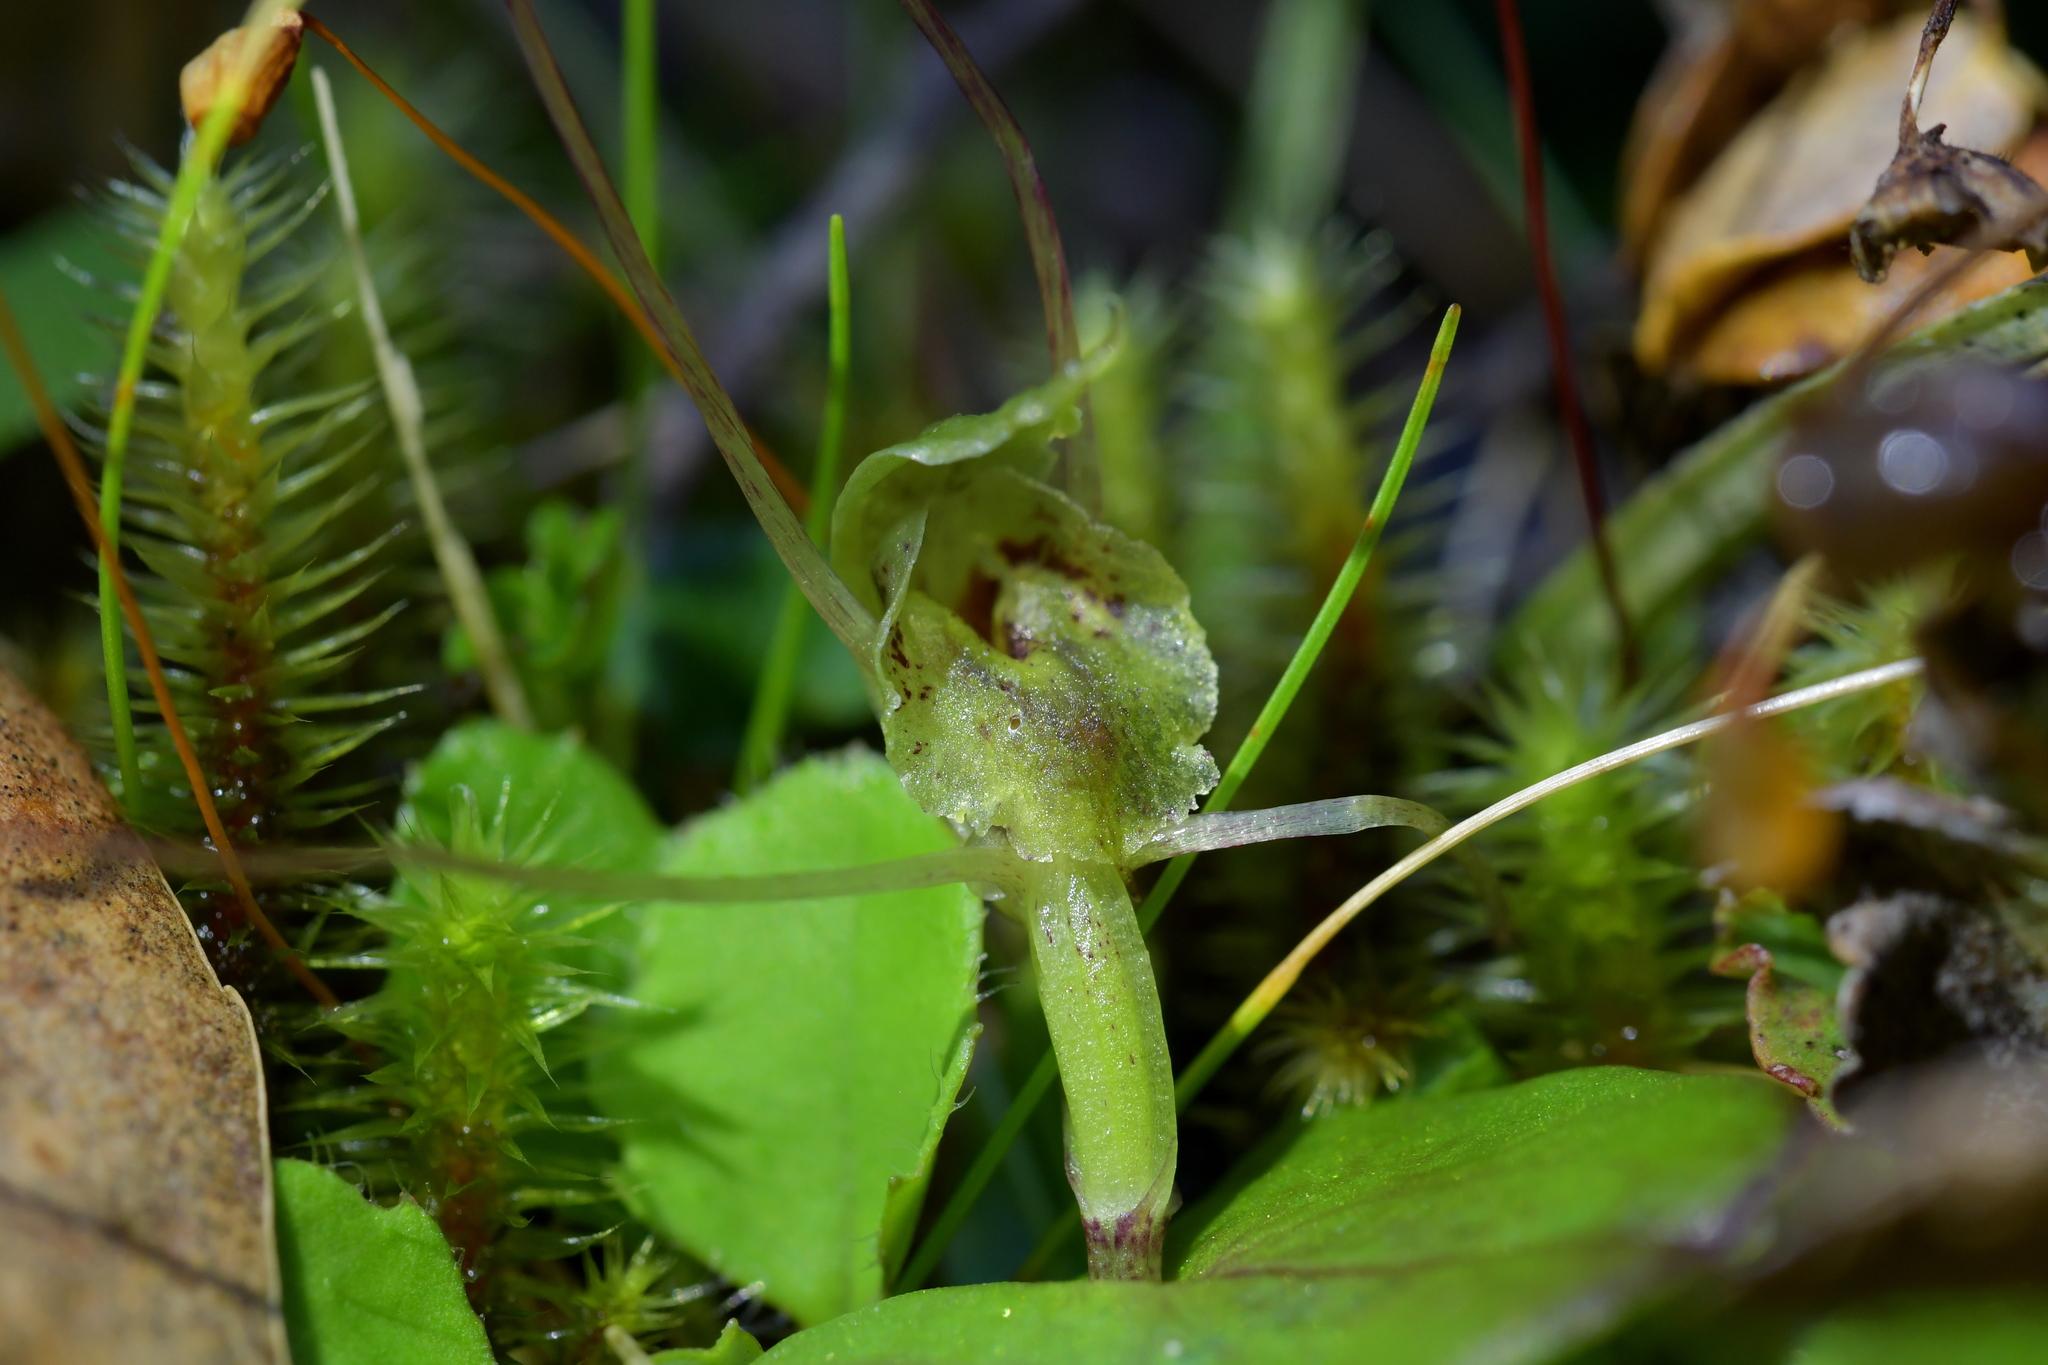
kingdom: Plantae
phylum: Tracheophyta
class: Liliopsida
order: Asparagales
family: Orchidaceae
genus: Corybas
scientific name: Corybas papa
